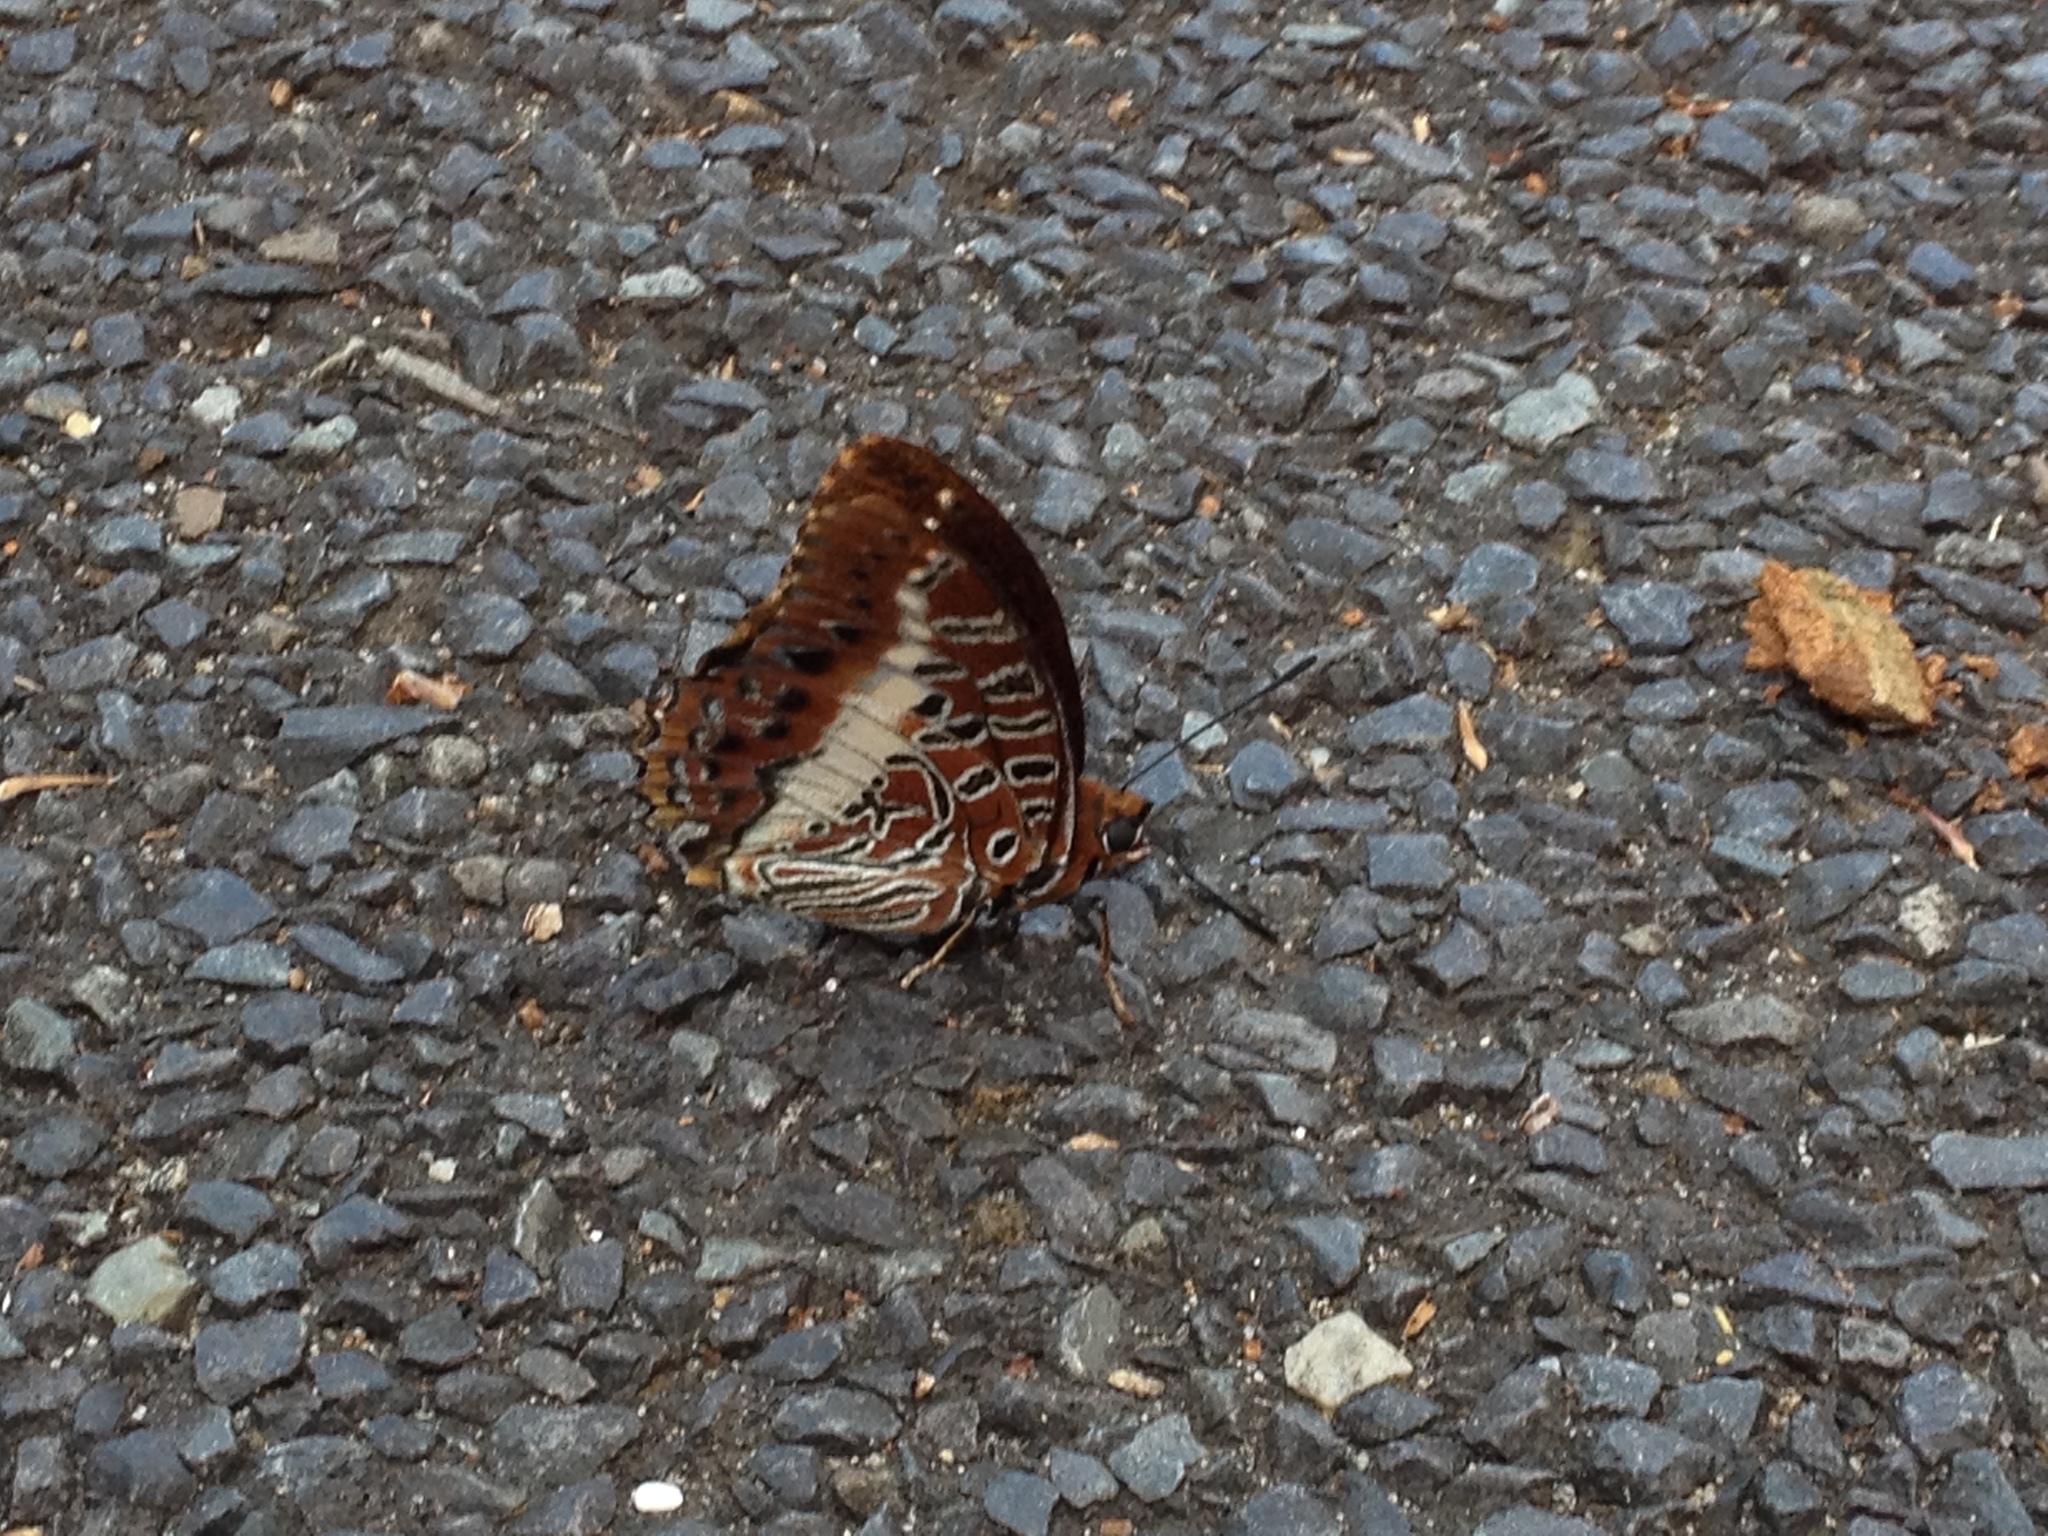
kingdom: Animalia
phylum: Arthropoda
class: Insecta
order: Lepidoptera
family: Nymphalidae
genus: Charaxes
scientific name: Charaxes brutus
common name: White-barred charaxes
